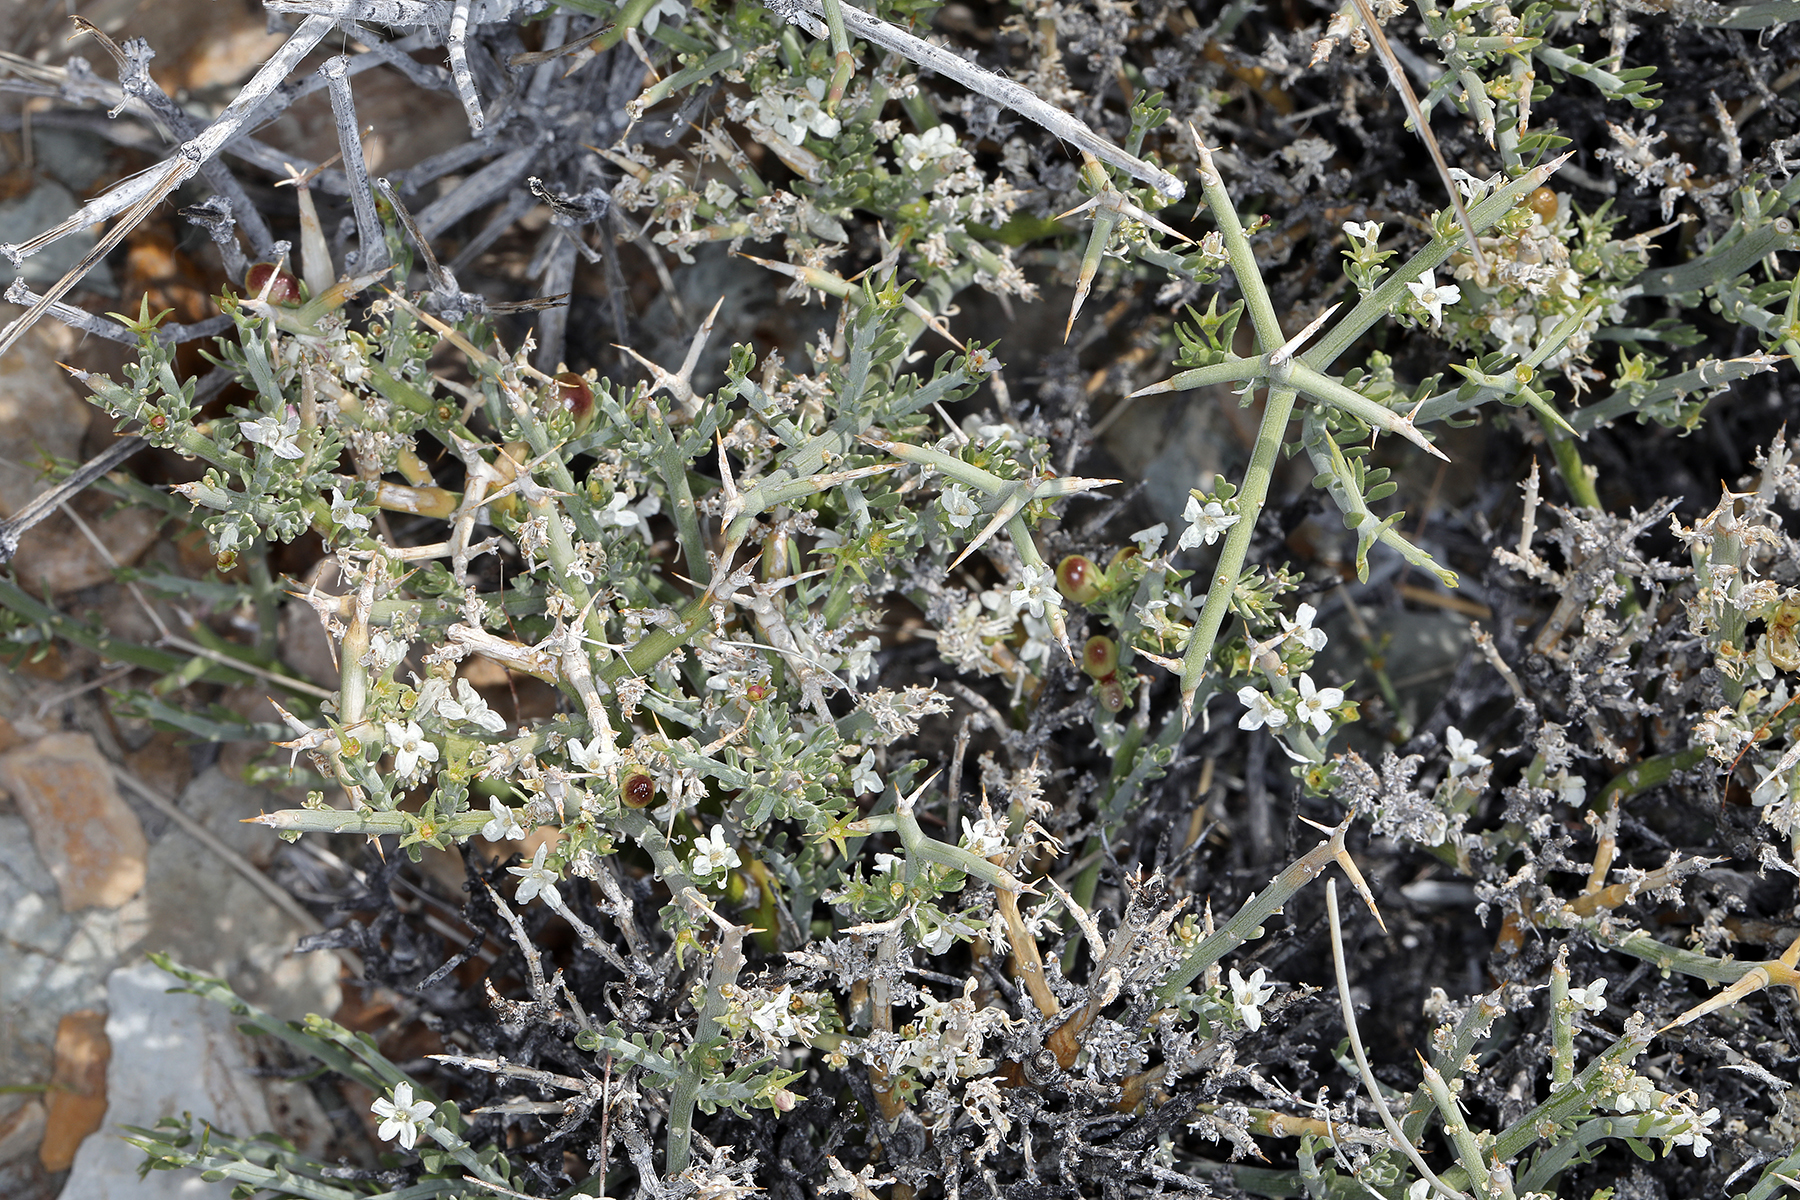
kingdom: Plantae
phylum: Tracheophyta
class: Magnoliopsida
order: Lamiales
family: Oleaceae
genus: Menodora
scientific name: Menodora spinescens
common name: Spiny menodora
